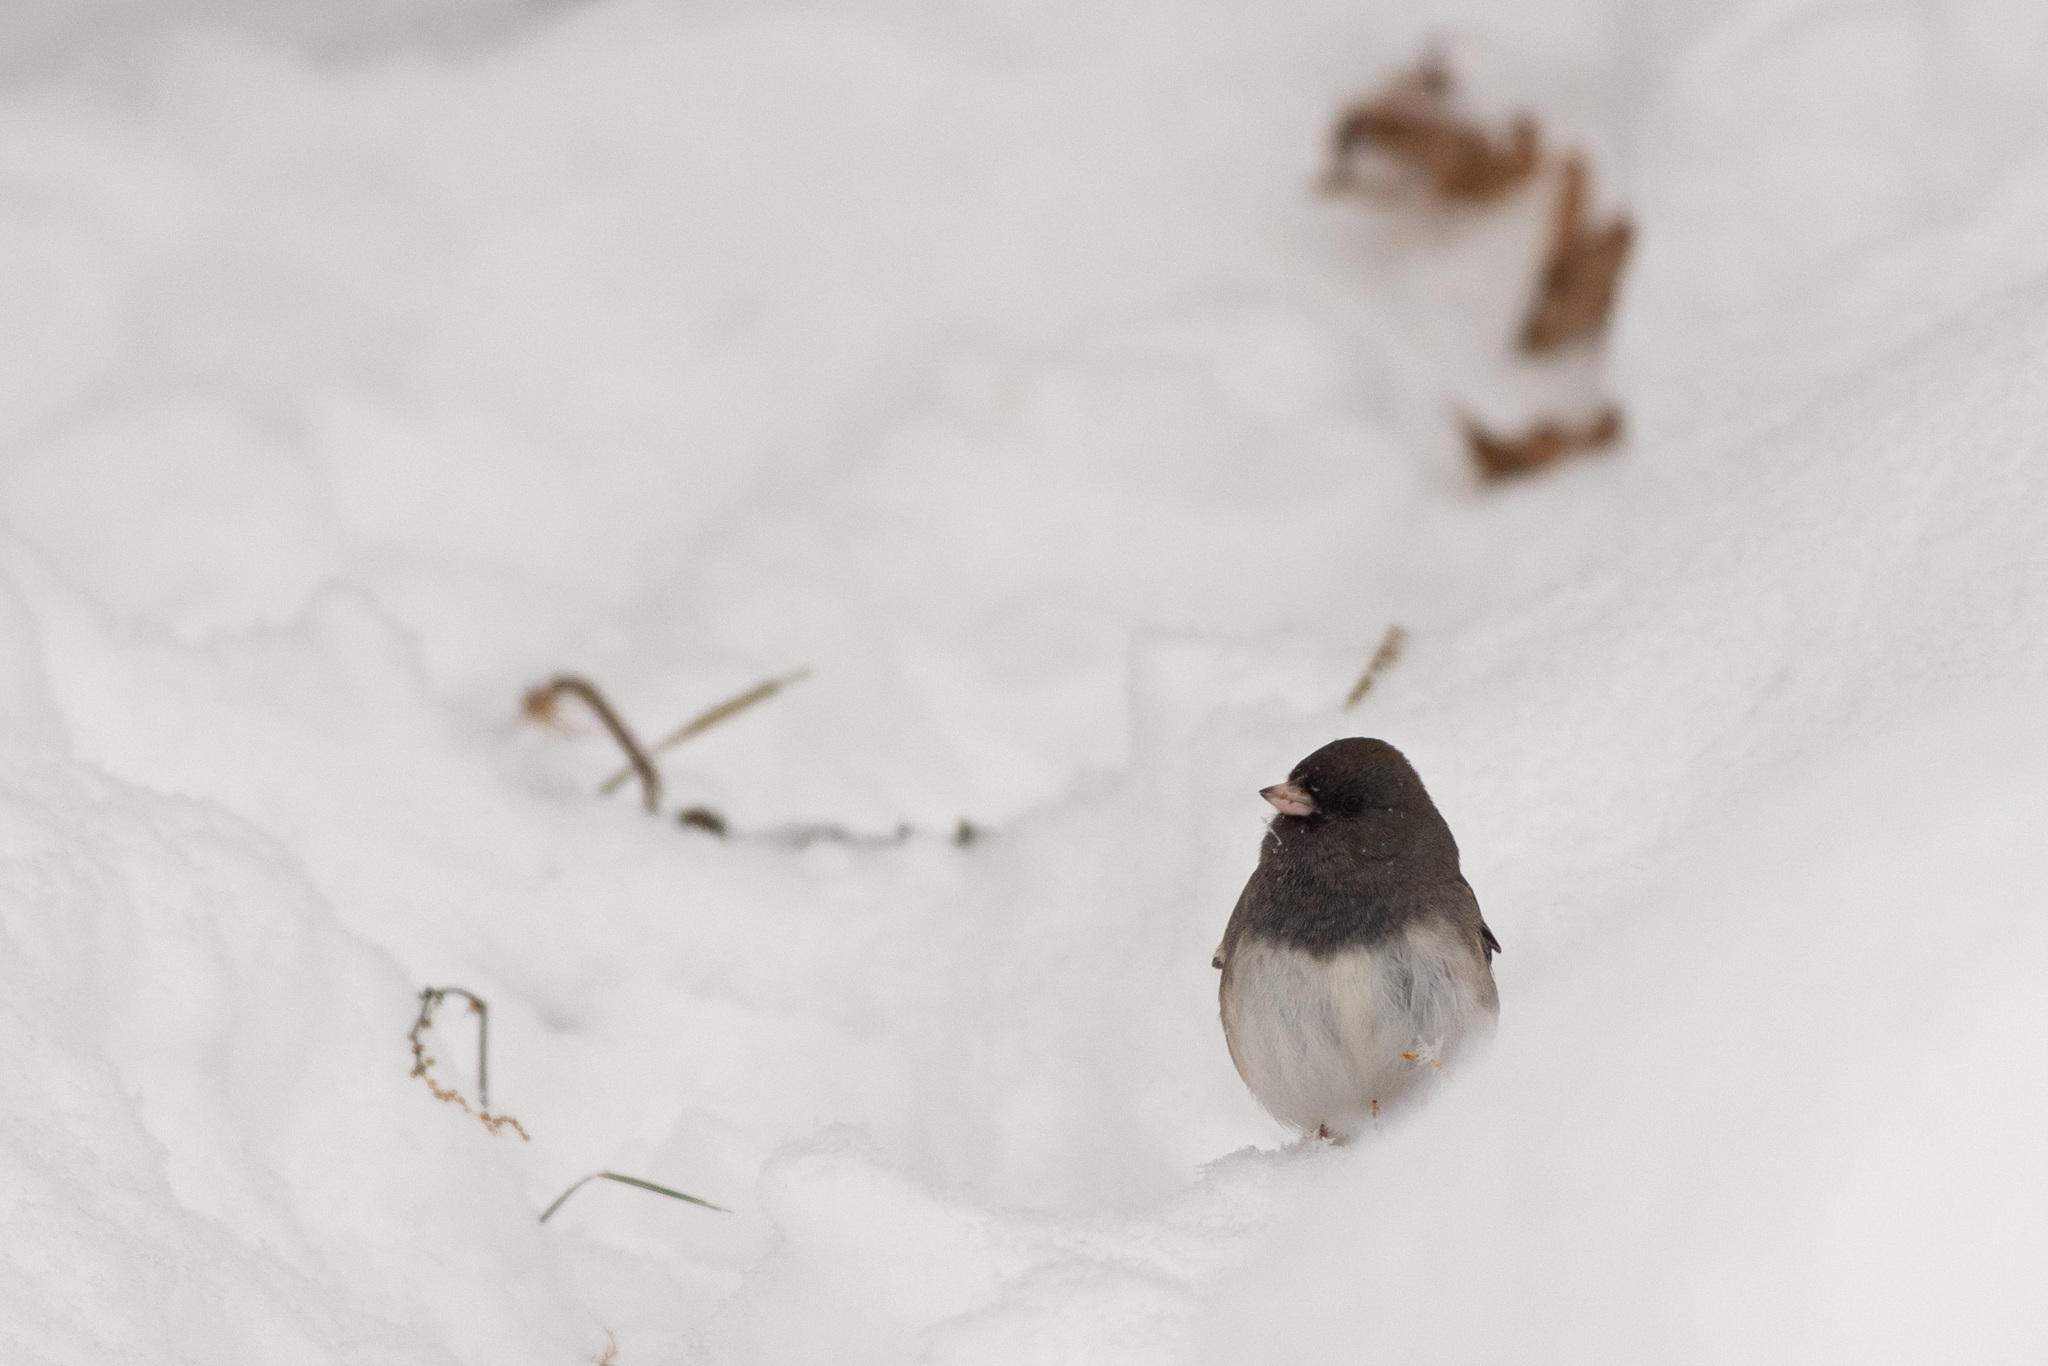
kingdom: Animalia
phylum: Chordata
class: Aves
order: Passeriformes
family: Passerellidae
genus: Junco
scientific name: Junco hyemalis
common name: Dark-eyed junco
